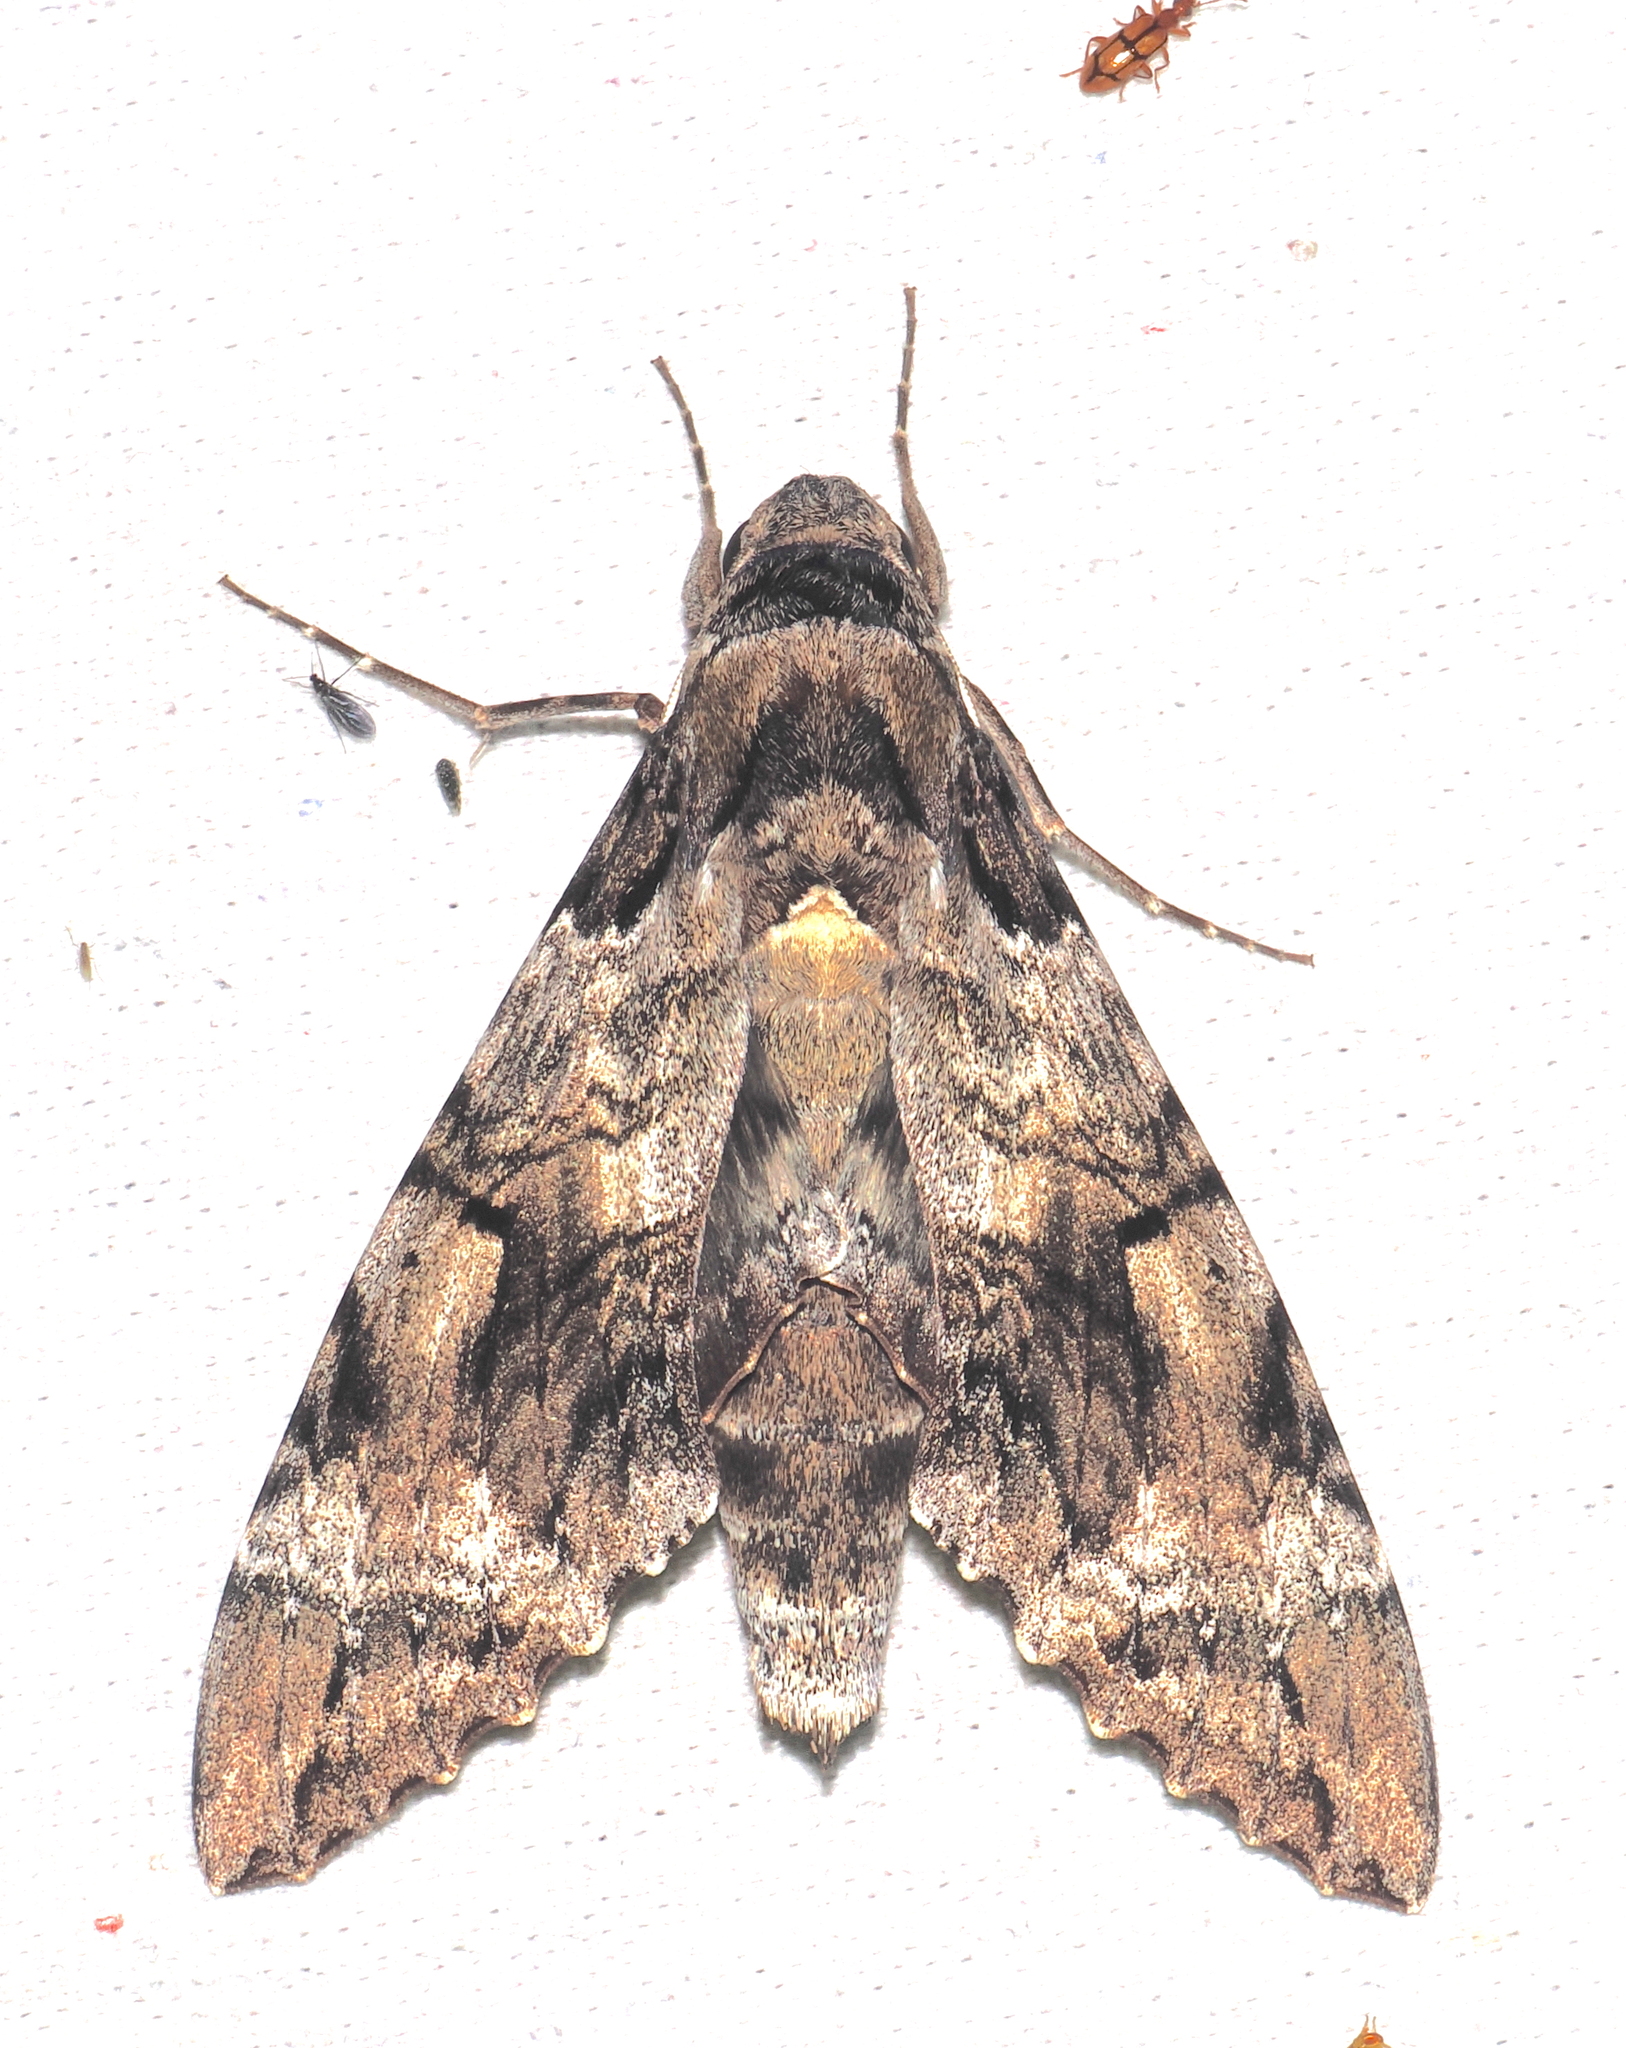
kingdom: Animalia
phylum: Arthropoda
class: Insecta
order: Lepidoptera
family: Sphingidae
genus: Pseudosphinx
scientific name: Pseudosphinx tetrio
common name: Tetrio sphinx
